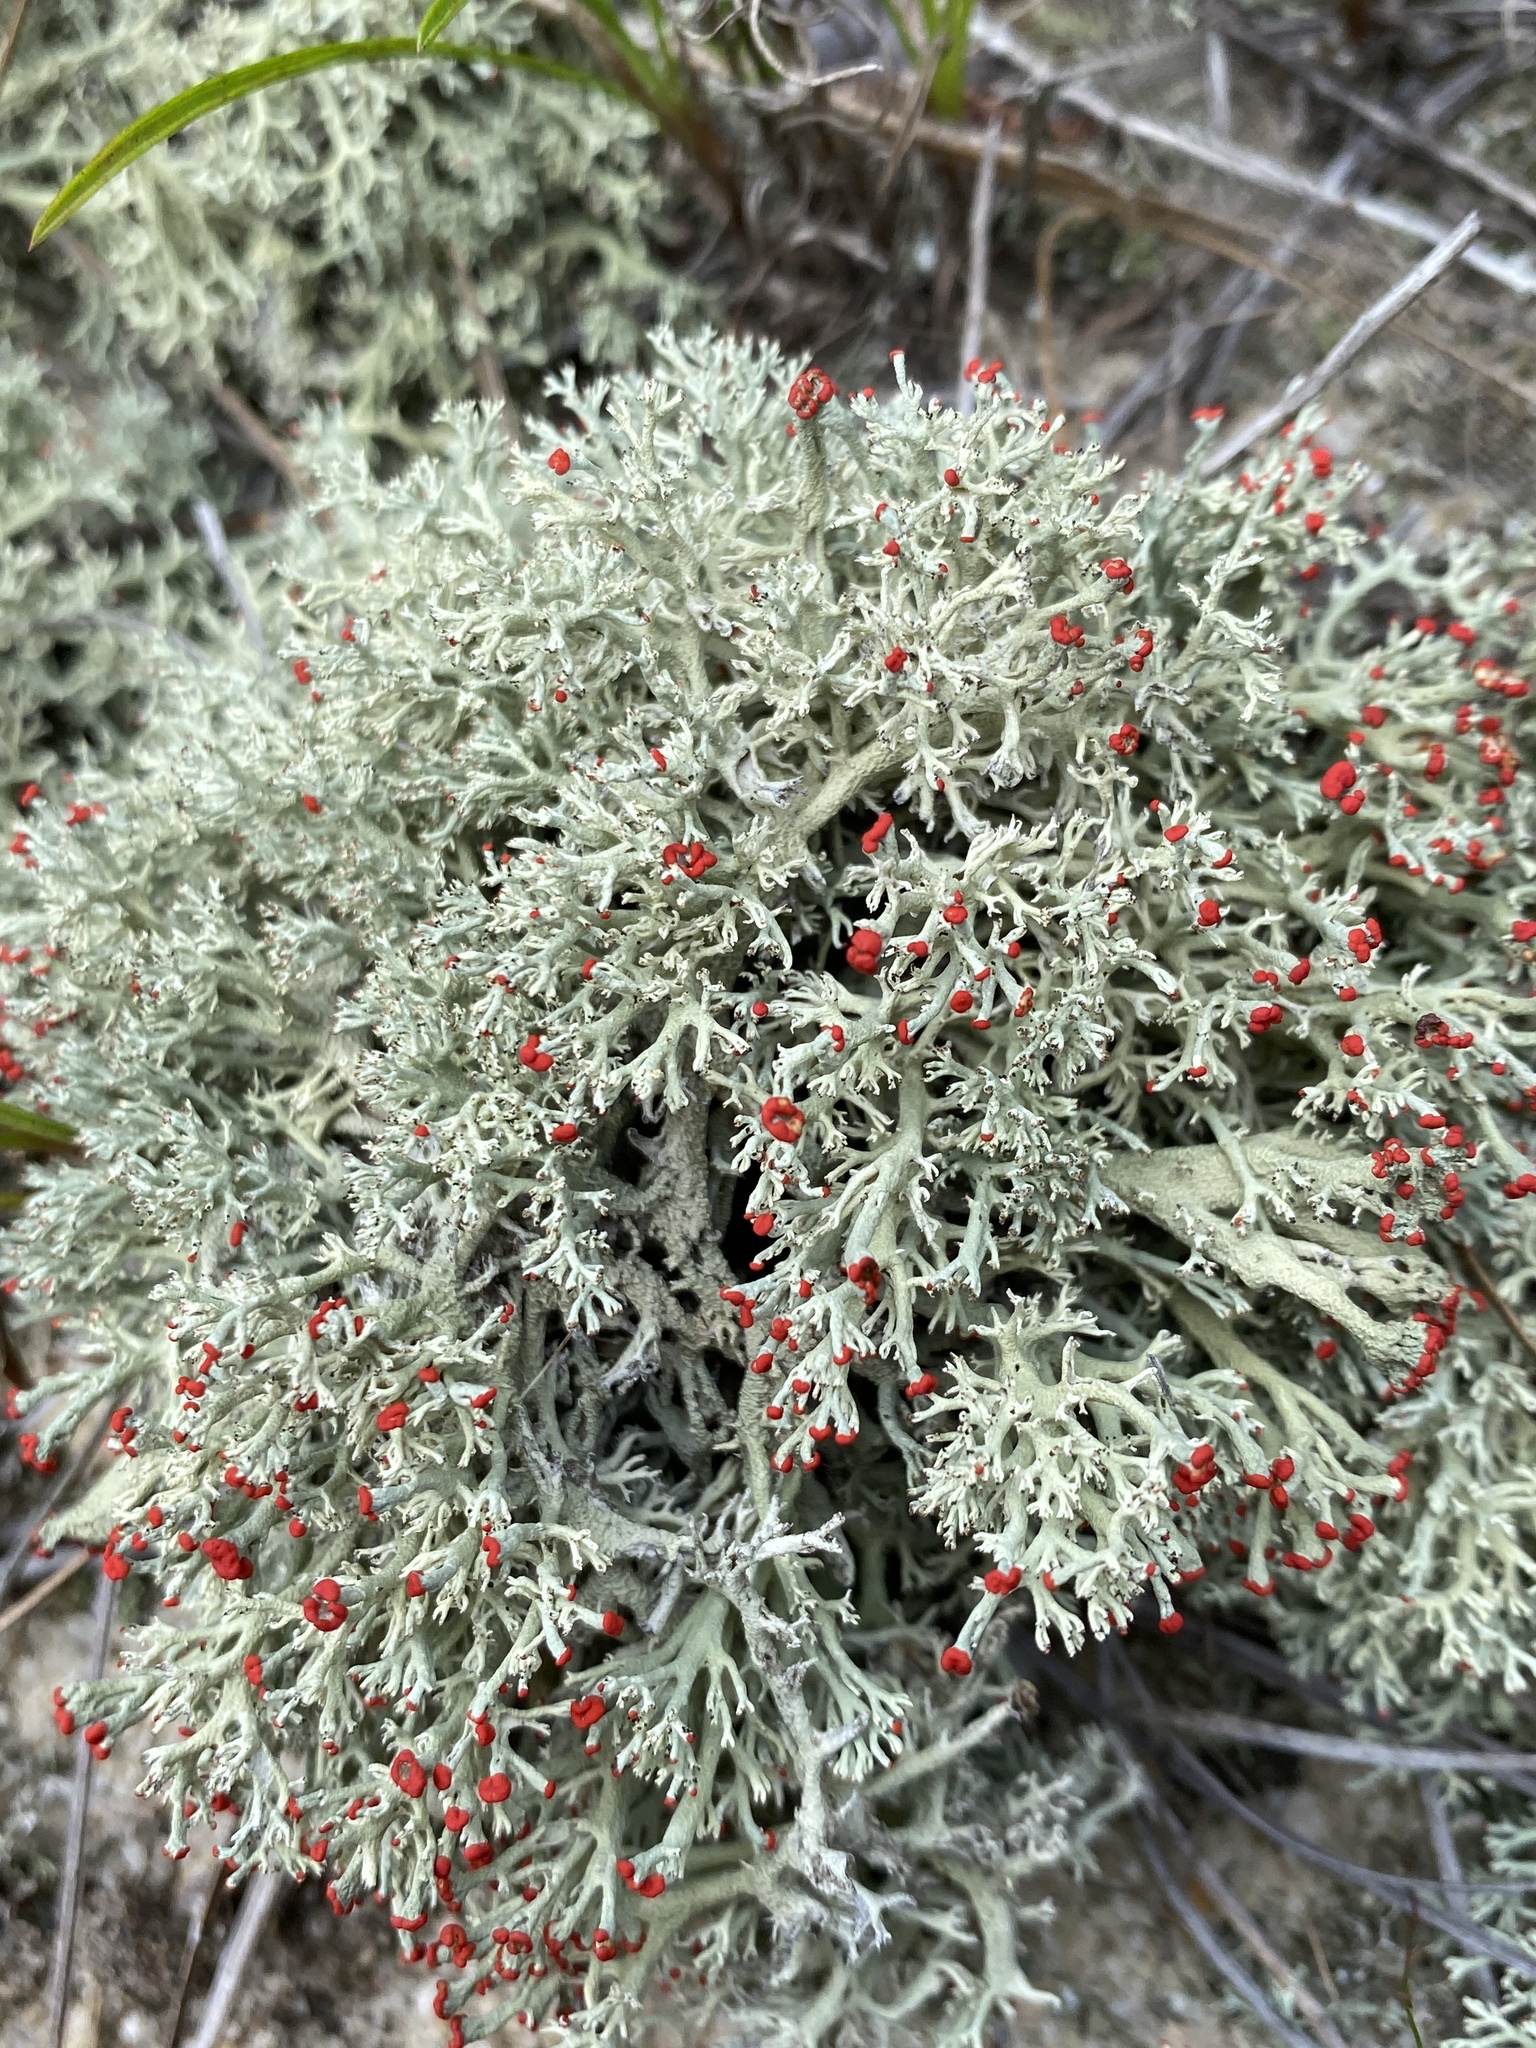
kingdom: Fungi
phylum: Ascomycota
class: Lecanoromycetes
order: Lecanorales
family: Cladoniaceae
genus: Cladonia
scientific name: Cladonia leporina
